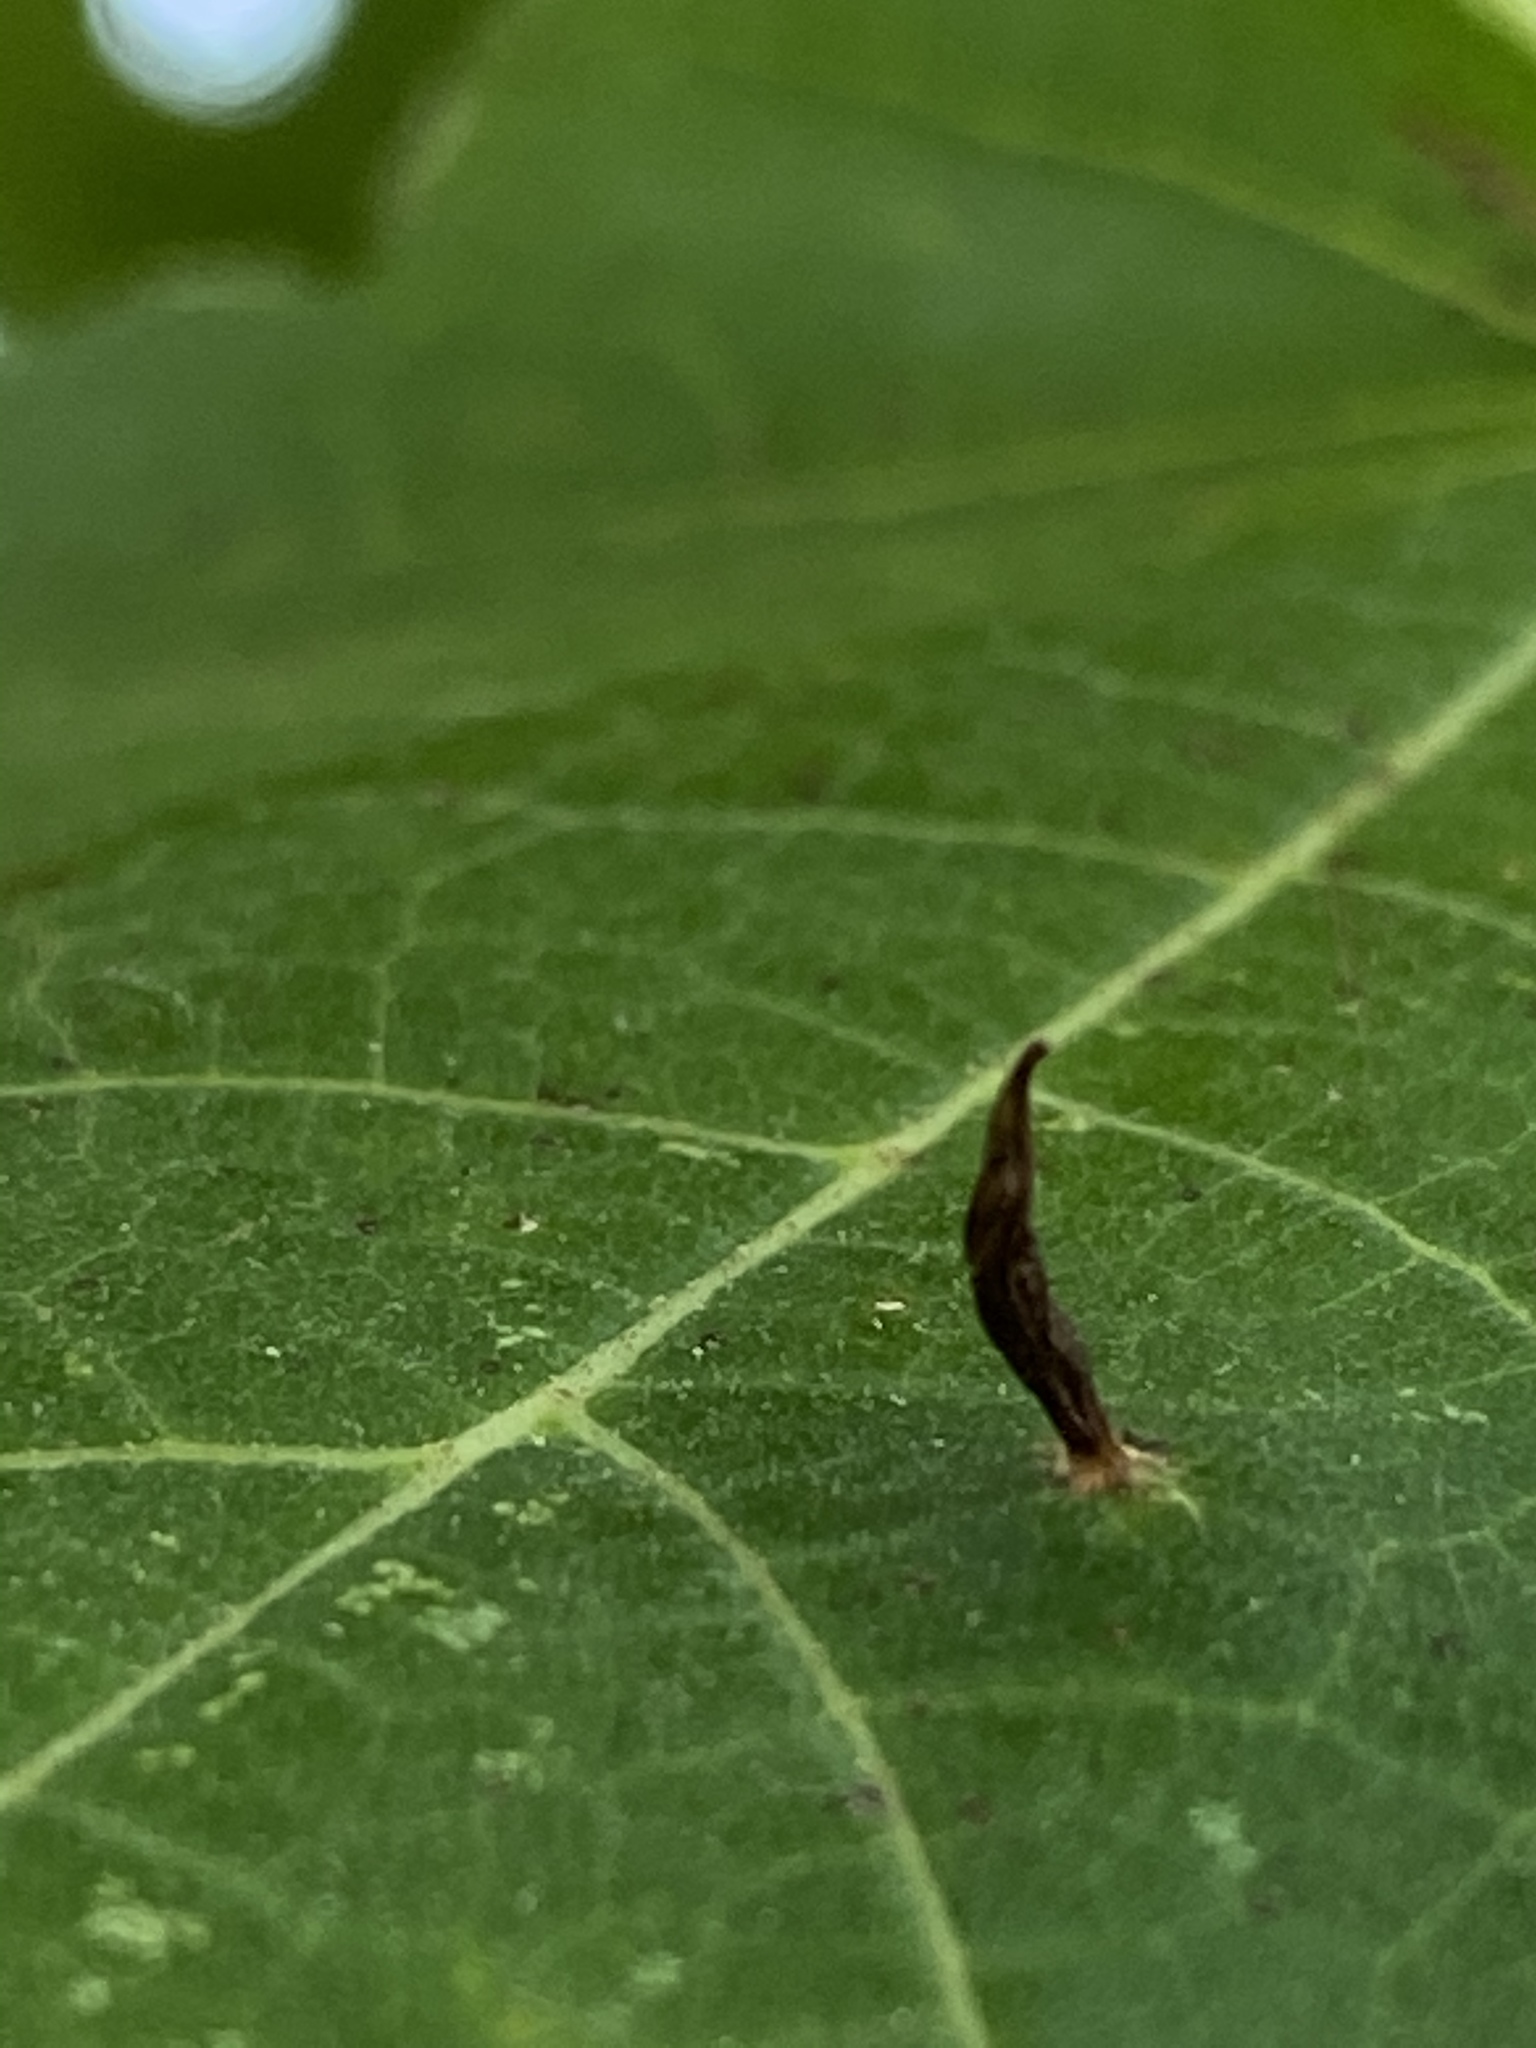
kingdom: Animalia
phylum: Arthropoda
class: Arachnida
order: Trombidiformes
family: Eriophyidae
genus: Vasates
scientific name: Vasates aceriscrumena
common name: Maple spindle gall mite
